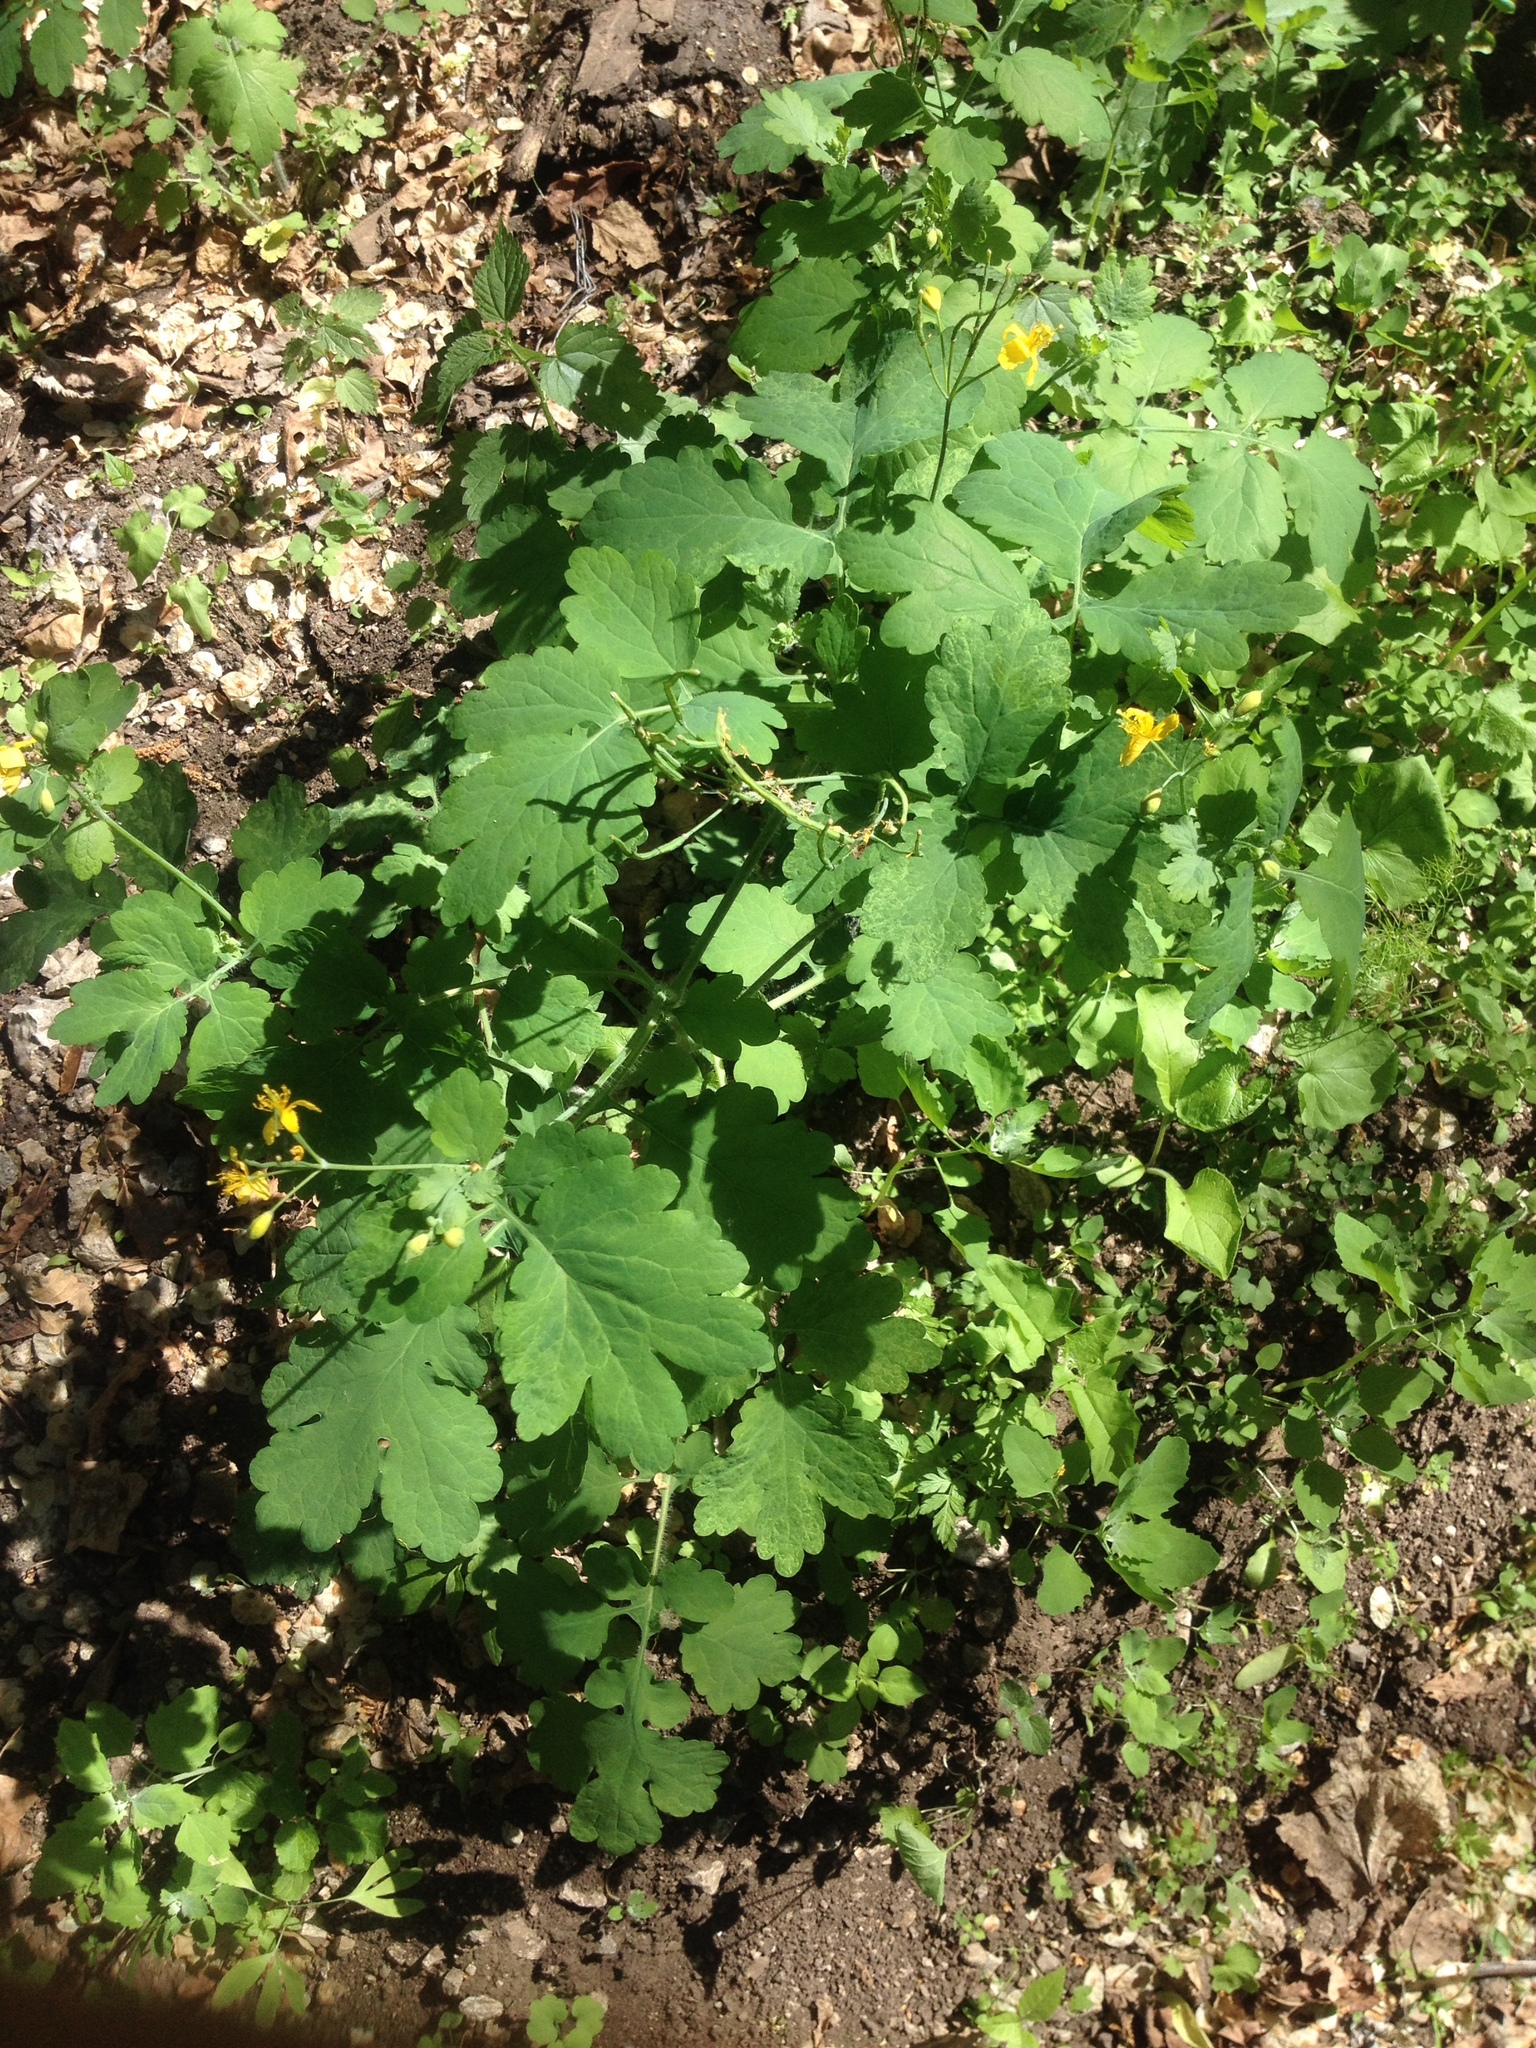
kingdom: Plantae
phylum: Tracheophyta
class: Magnoliopsida
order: Ranunculales
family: Papaveraceae
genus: Chelidonium
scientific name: Chelidonium majus
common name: Greater celandine
